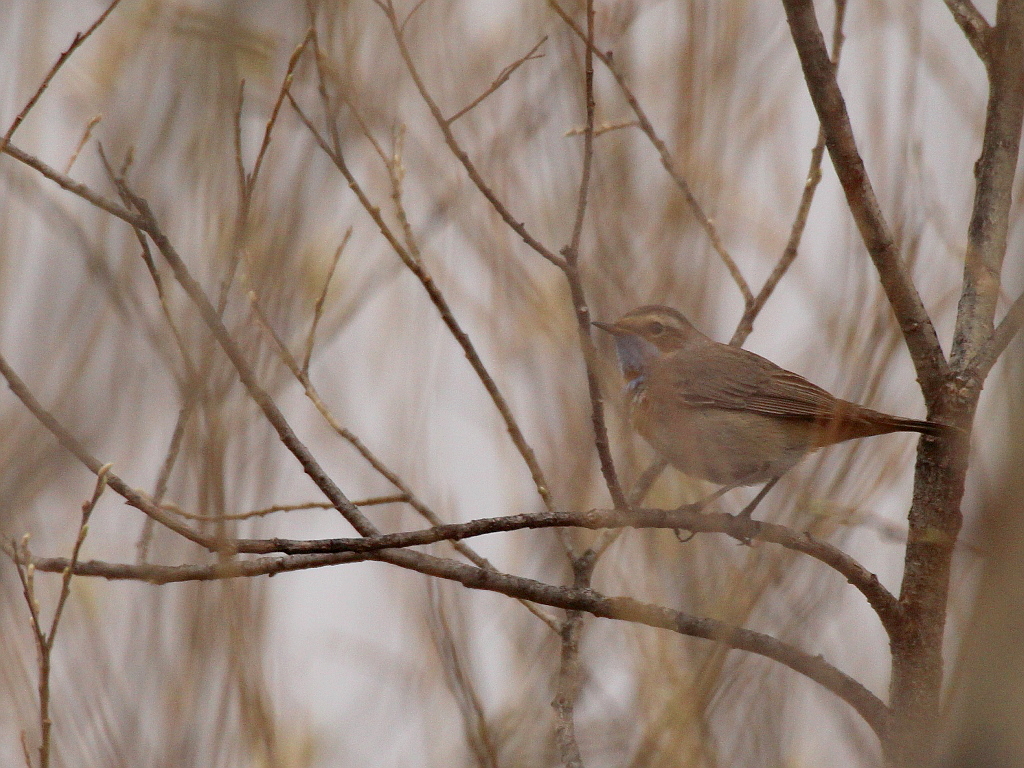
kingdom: Animalia
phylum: Chordata
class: Aves
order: Passeriformes
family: Muscicapidae
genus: Luscinia
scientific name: Luscinia svecica
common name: Bluethroat
